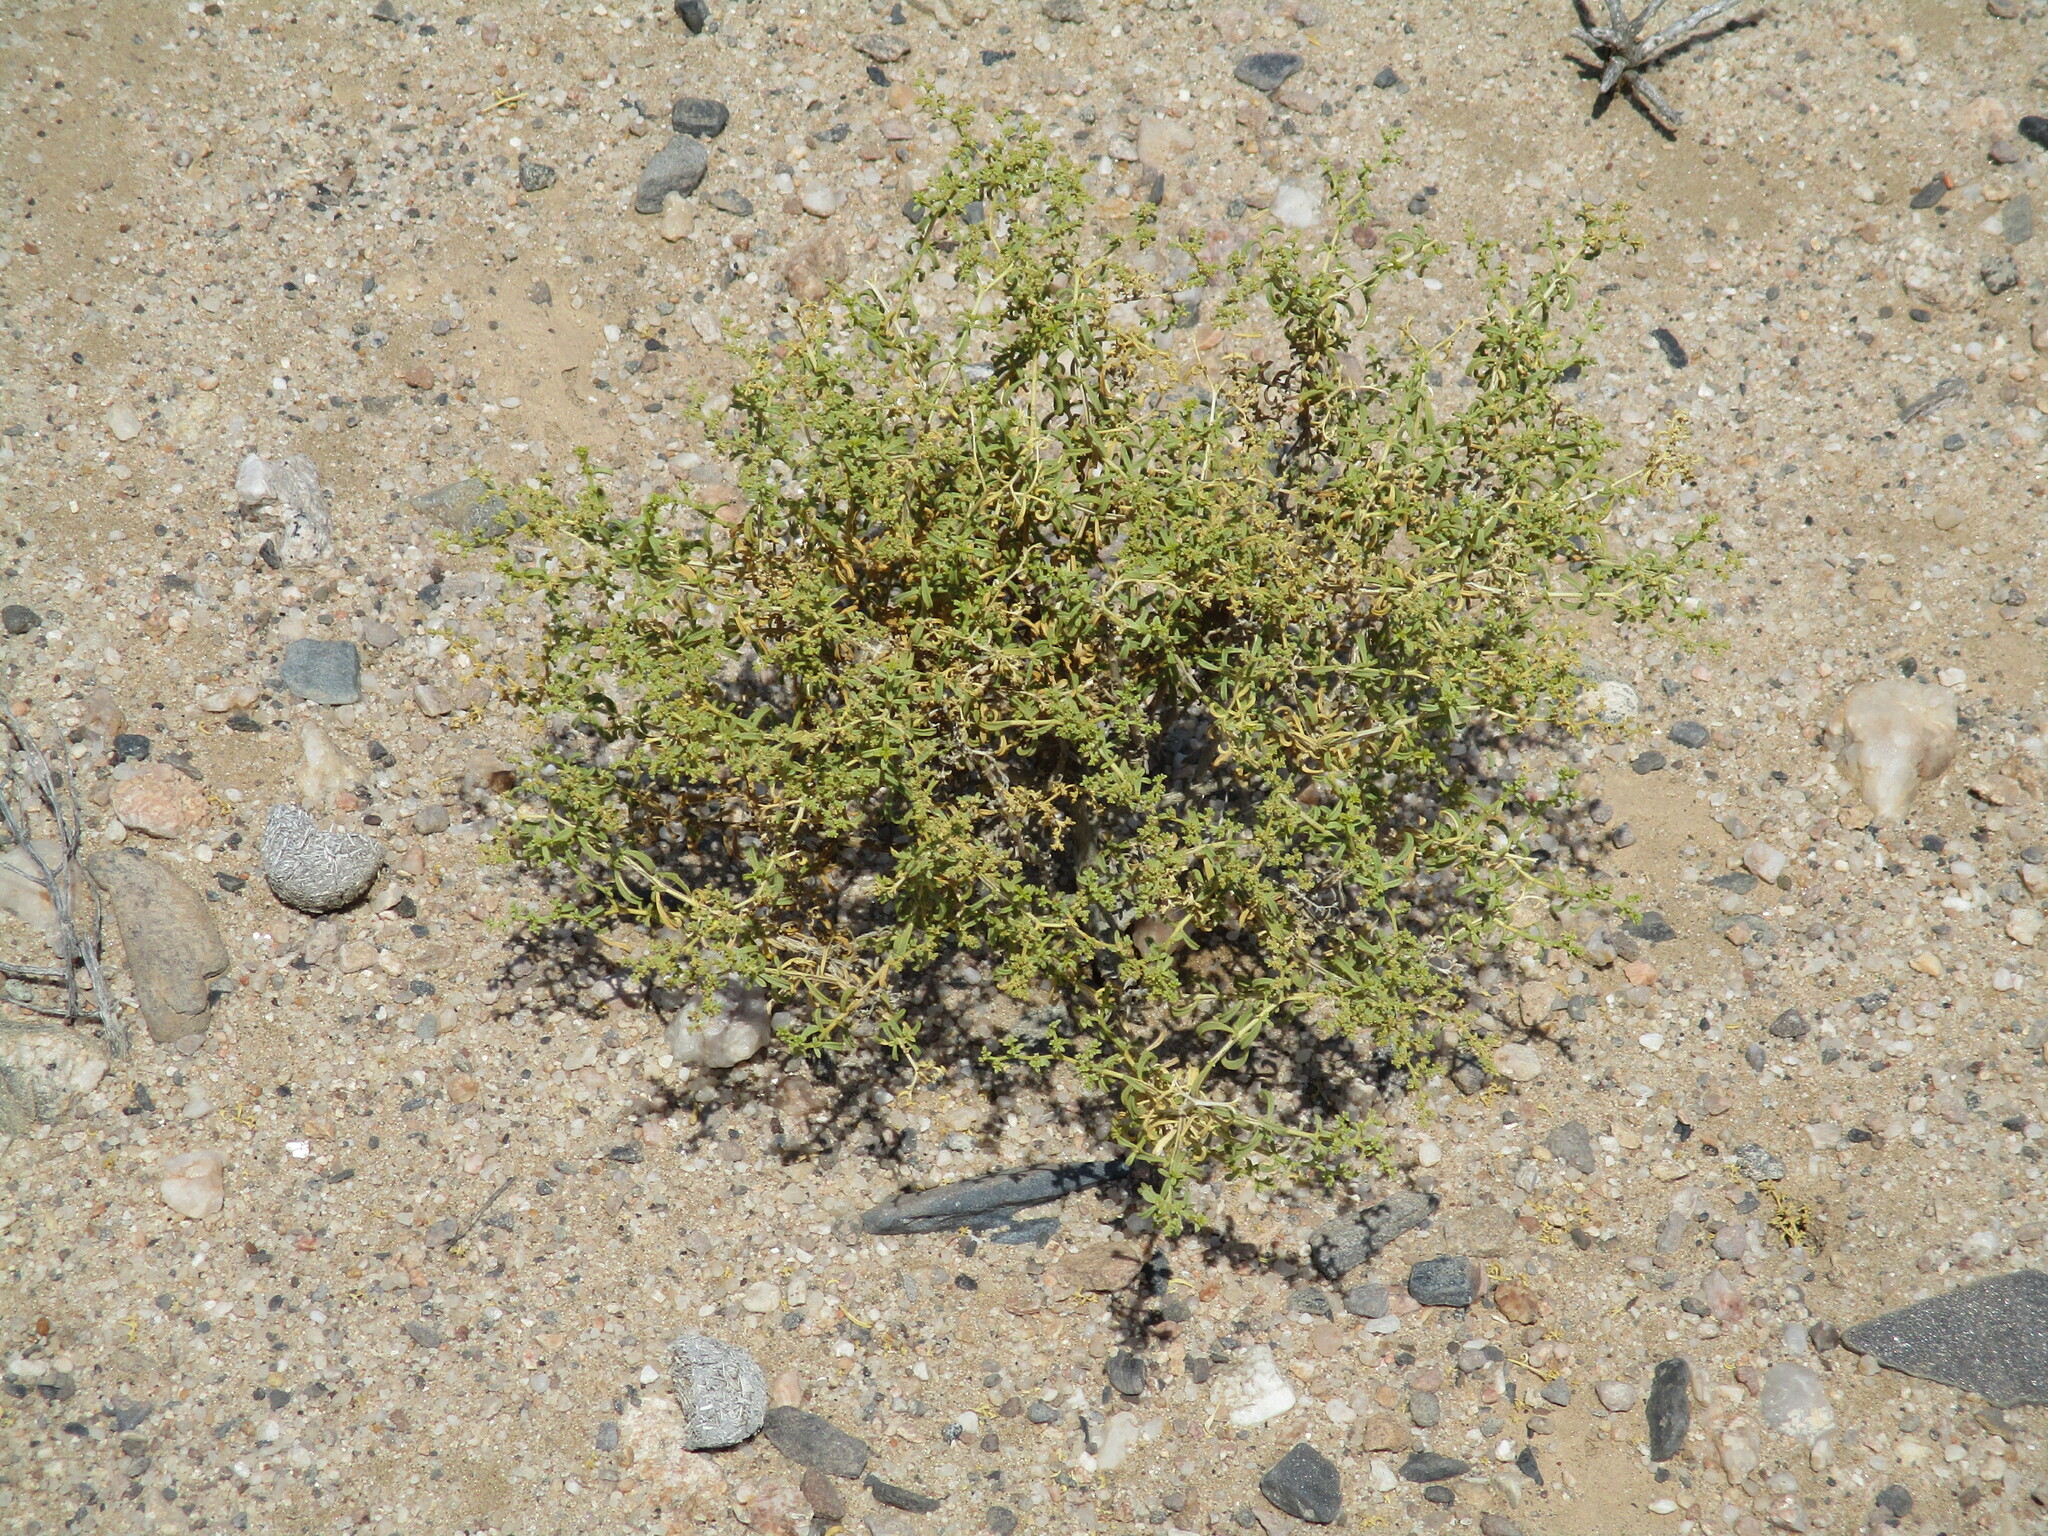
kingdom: Plantae
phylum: Tracheophyta
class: Magnoliopsida
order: Caryophyllales
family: Aizoaceae
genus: Aizoon
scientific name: Aizoon africanum
